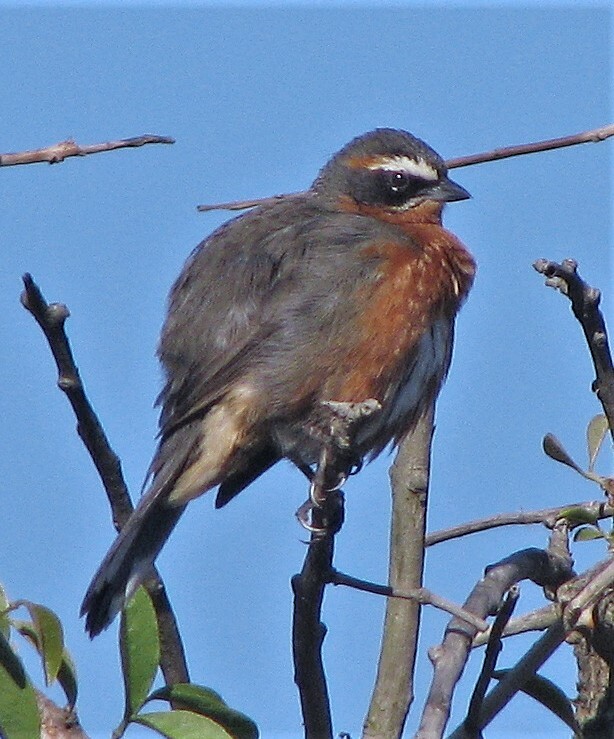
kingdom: Animalia
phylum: Chordata
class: Aves
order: Passeriformes
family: Thraupidae
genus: Poospiza
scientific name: Poospiza nigrorufa
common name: Black-and-rufous warbling finch
